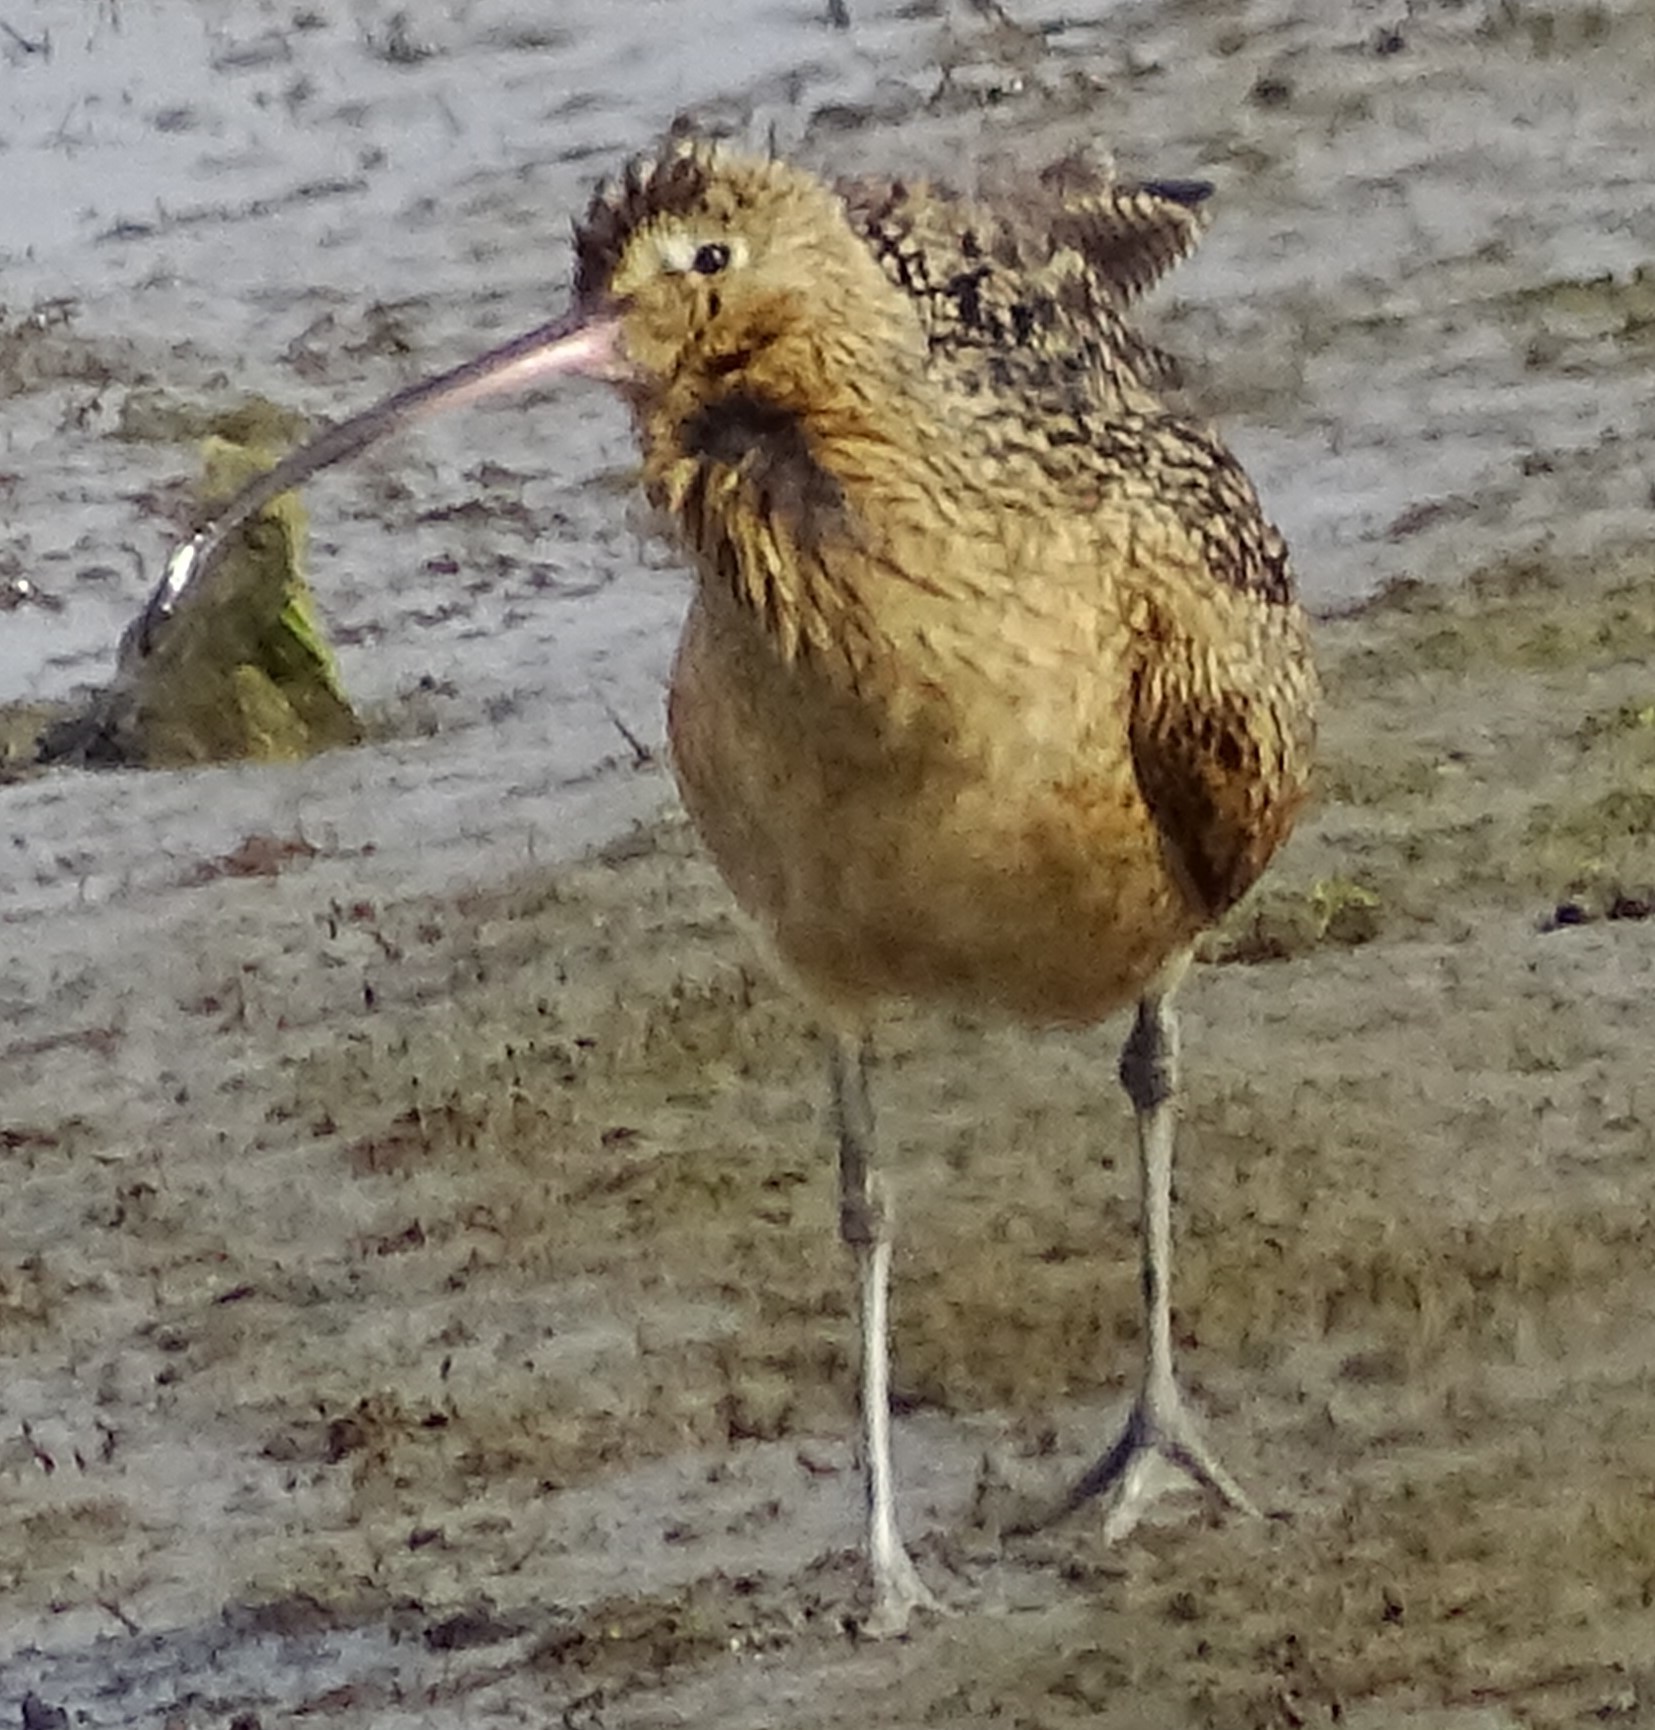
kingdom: Animalia
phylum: Chordata
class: Aves
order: Charadriiformes
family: Scolopacidae
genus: Numenius
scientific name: Numenius americanus
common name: Long-billed curlew
